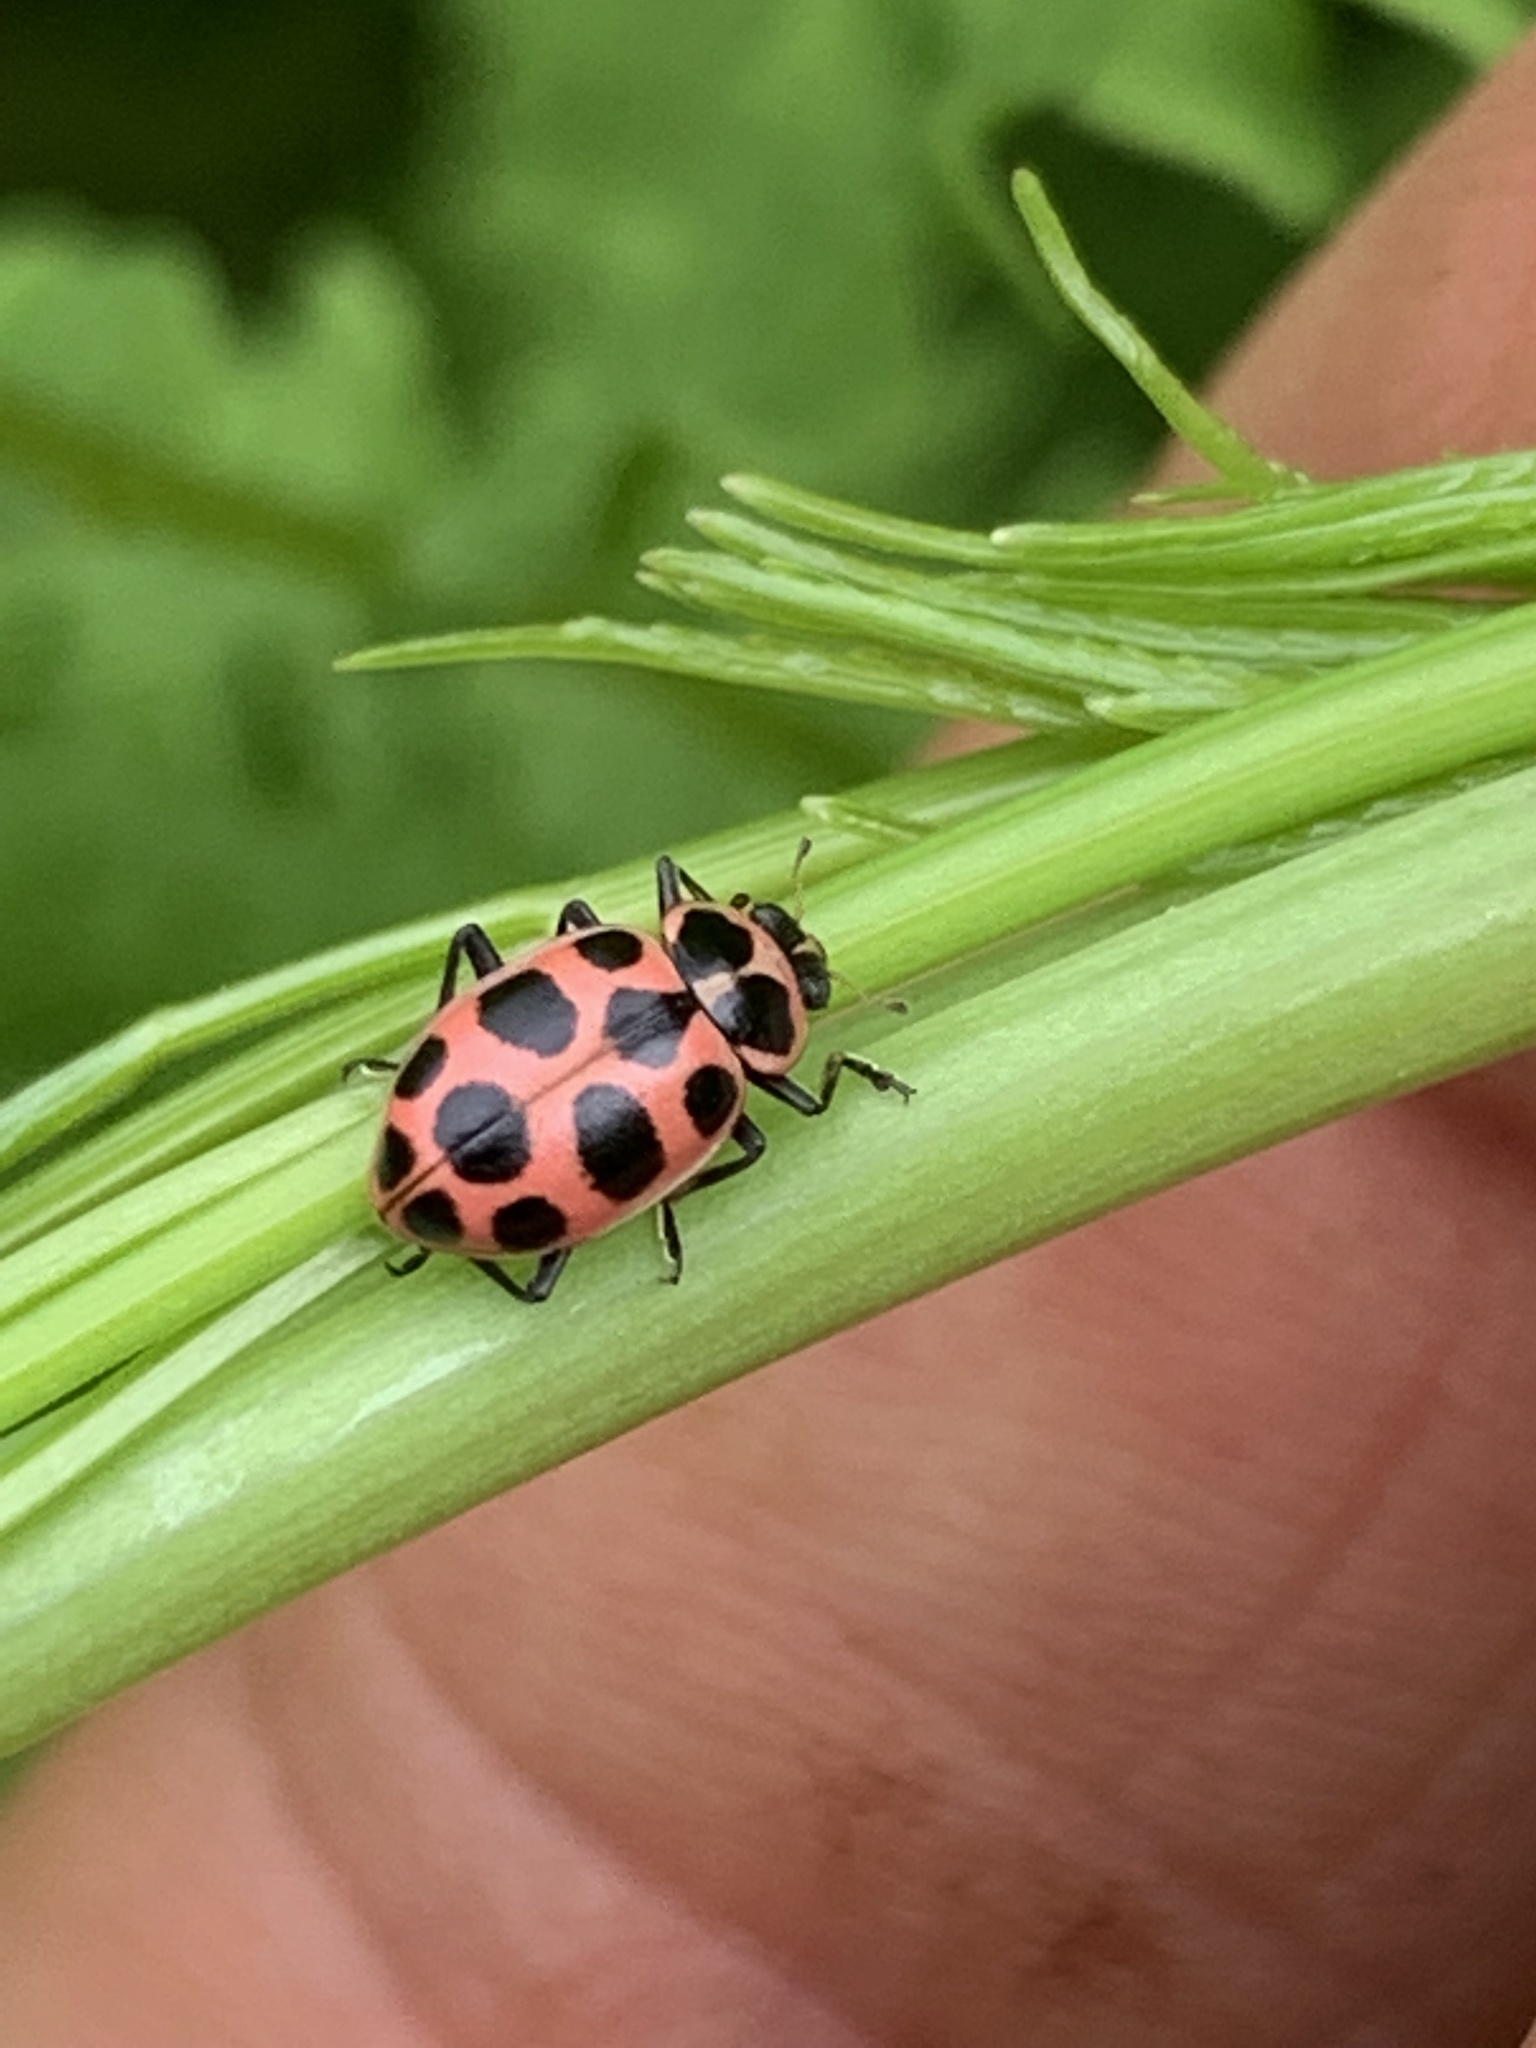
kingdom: Animalia
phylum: Arthropoda
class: Insecta
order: Coleoptera
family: Coccinellidae
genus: Coleomegilla
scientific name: Coleomegilla maculata
